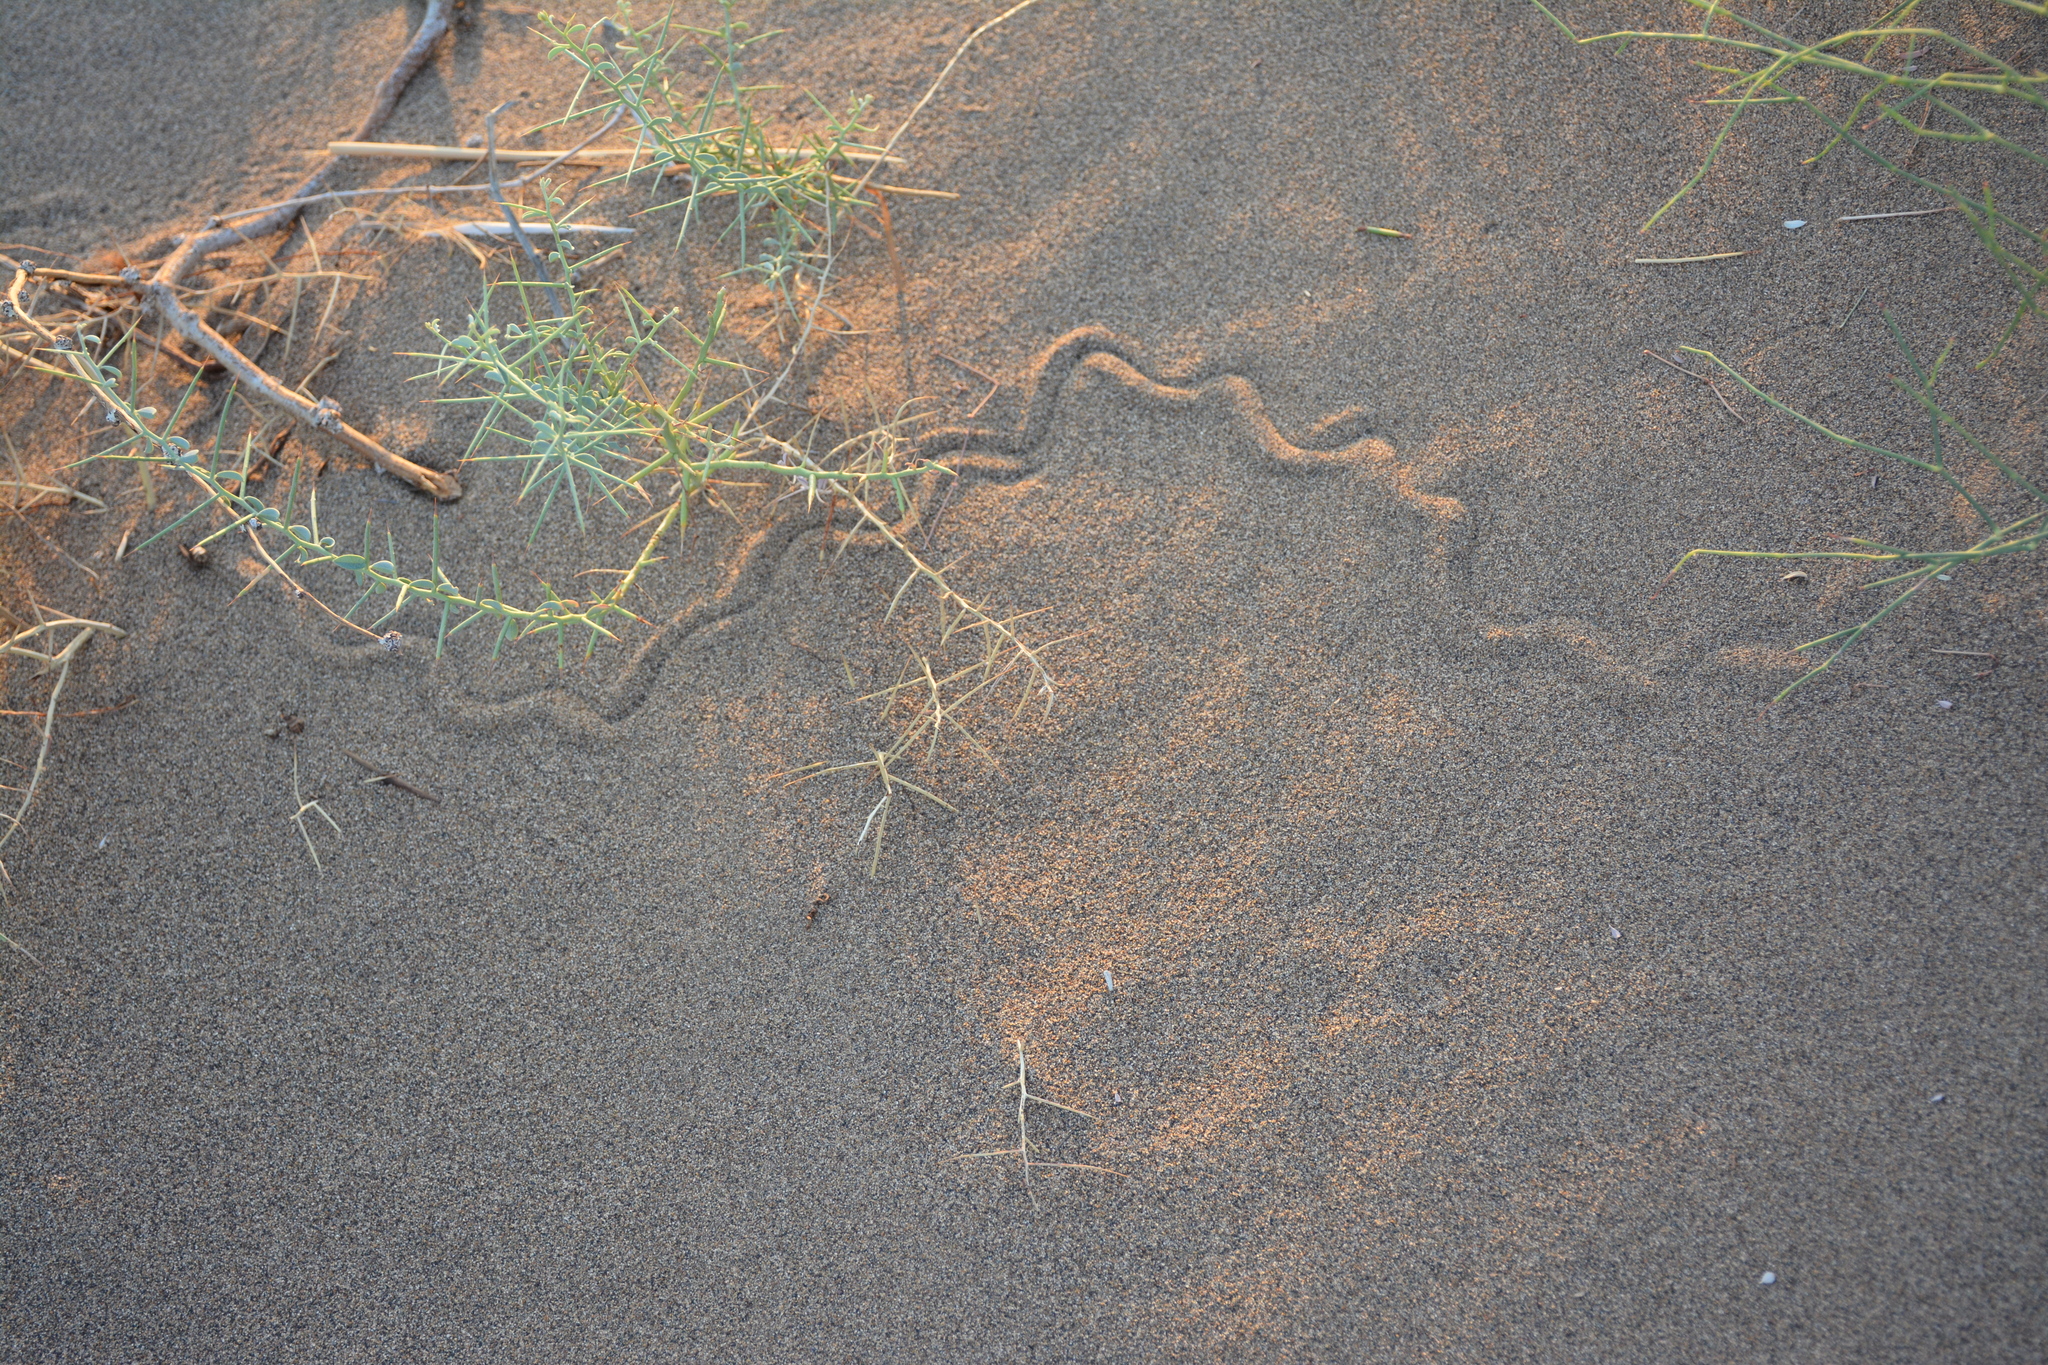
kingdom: Animalia
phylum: Chordata
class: Squamata
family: Scincidae
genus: Ophiomorus
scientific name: Ophiomorus maranjabensis
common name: Maranjab’s snake skink
